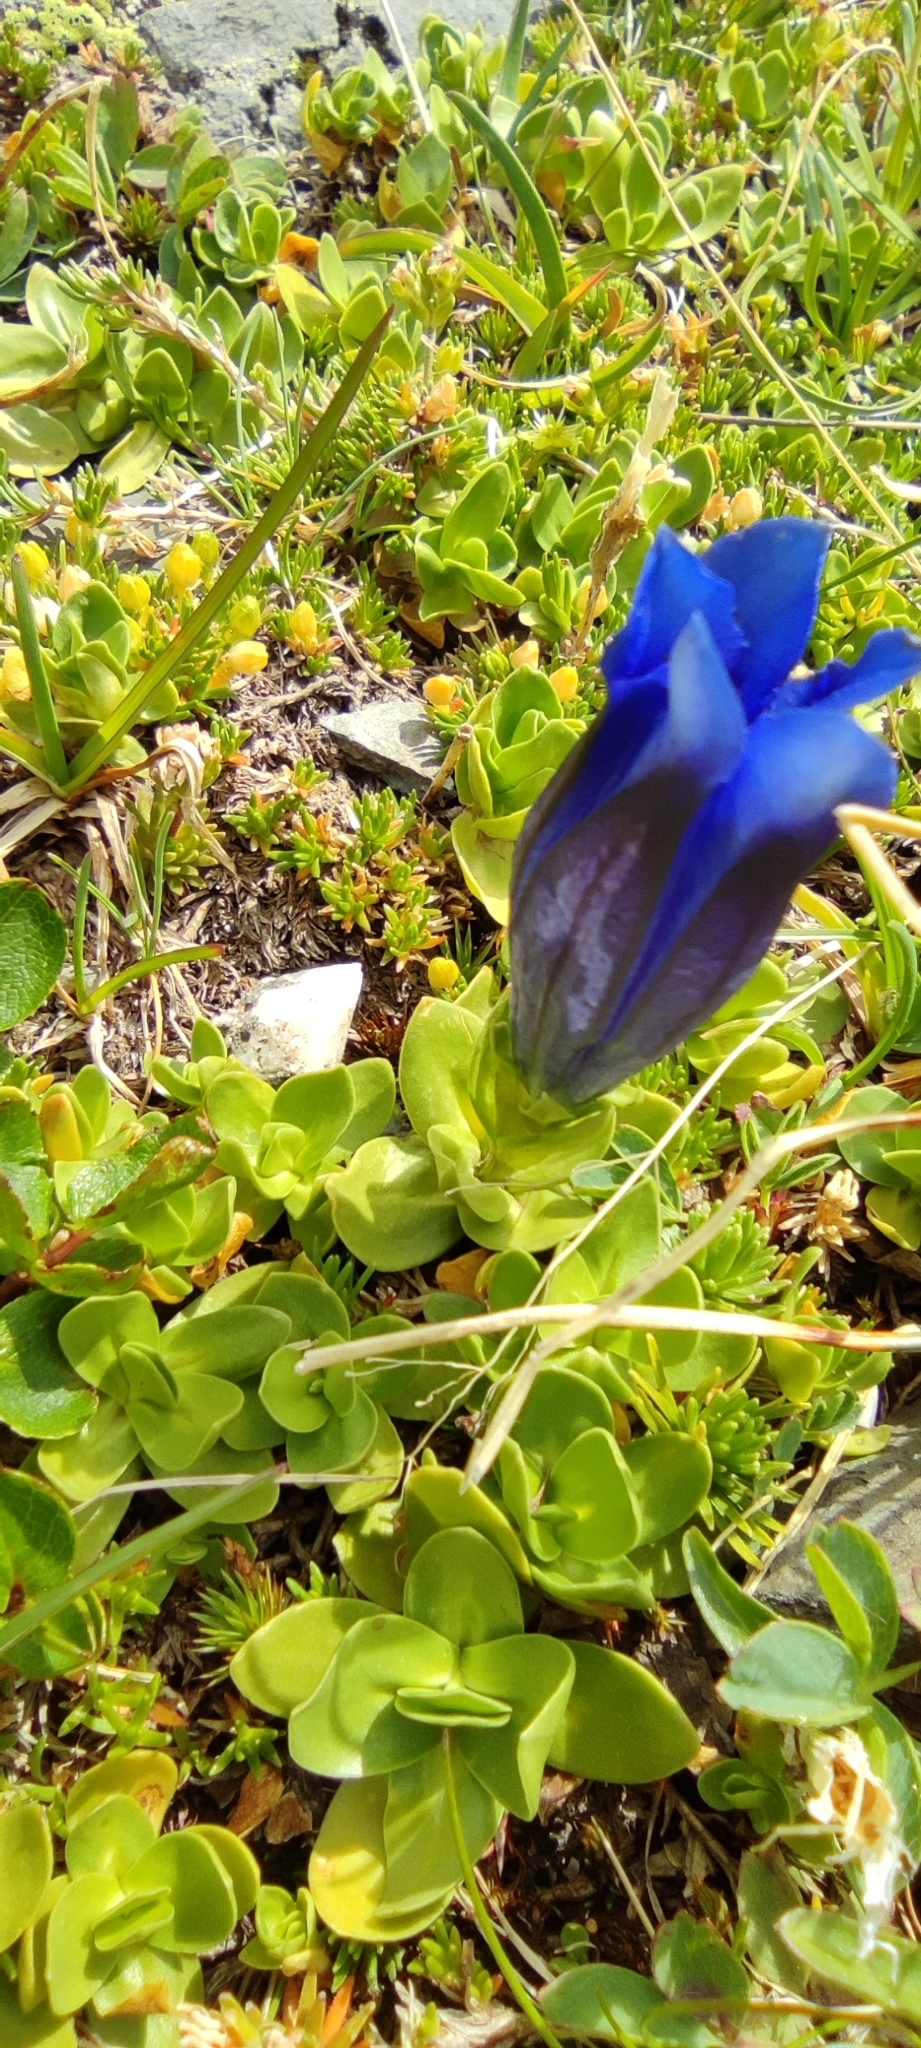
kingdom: Plantae
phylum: Tracheophyta
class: Magnoliopsida
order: Gentianales
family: Gentianaceae
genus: Gentiana
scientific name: Gentiana acaulis
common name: Trumpet gentian
